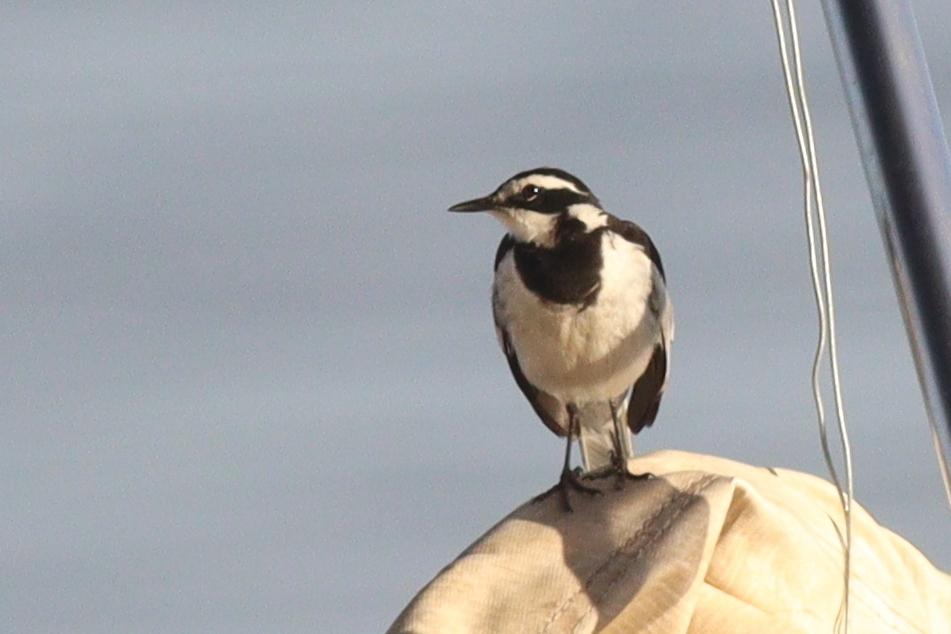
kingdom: Animalia
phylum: Chordata
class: Aves
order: Passeriformes
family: Motacillidae
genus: Motacilla
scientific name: Motacilla aguimp
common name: African pied wagtail
